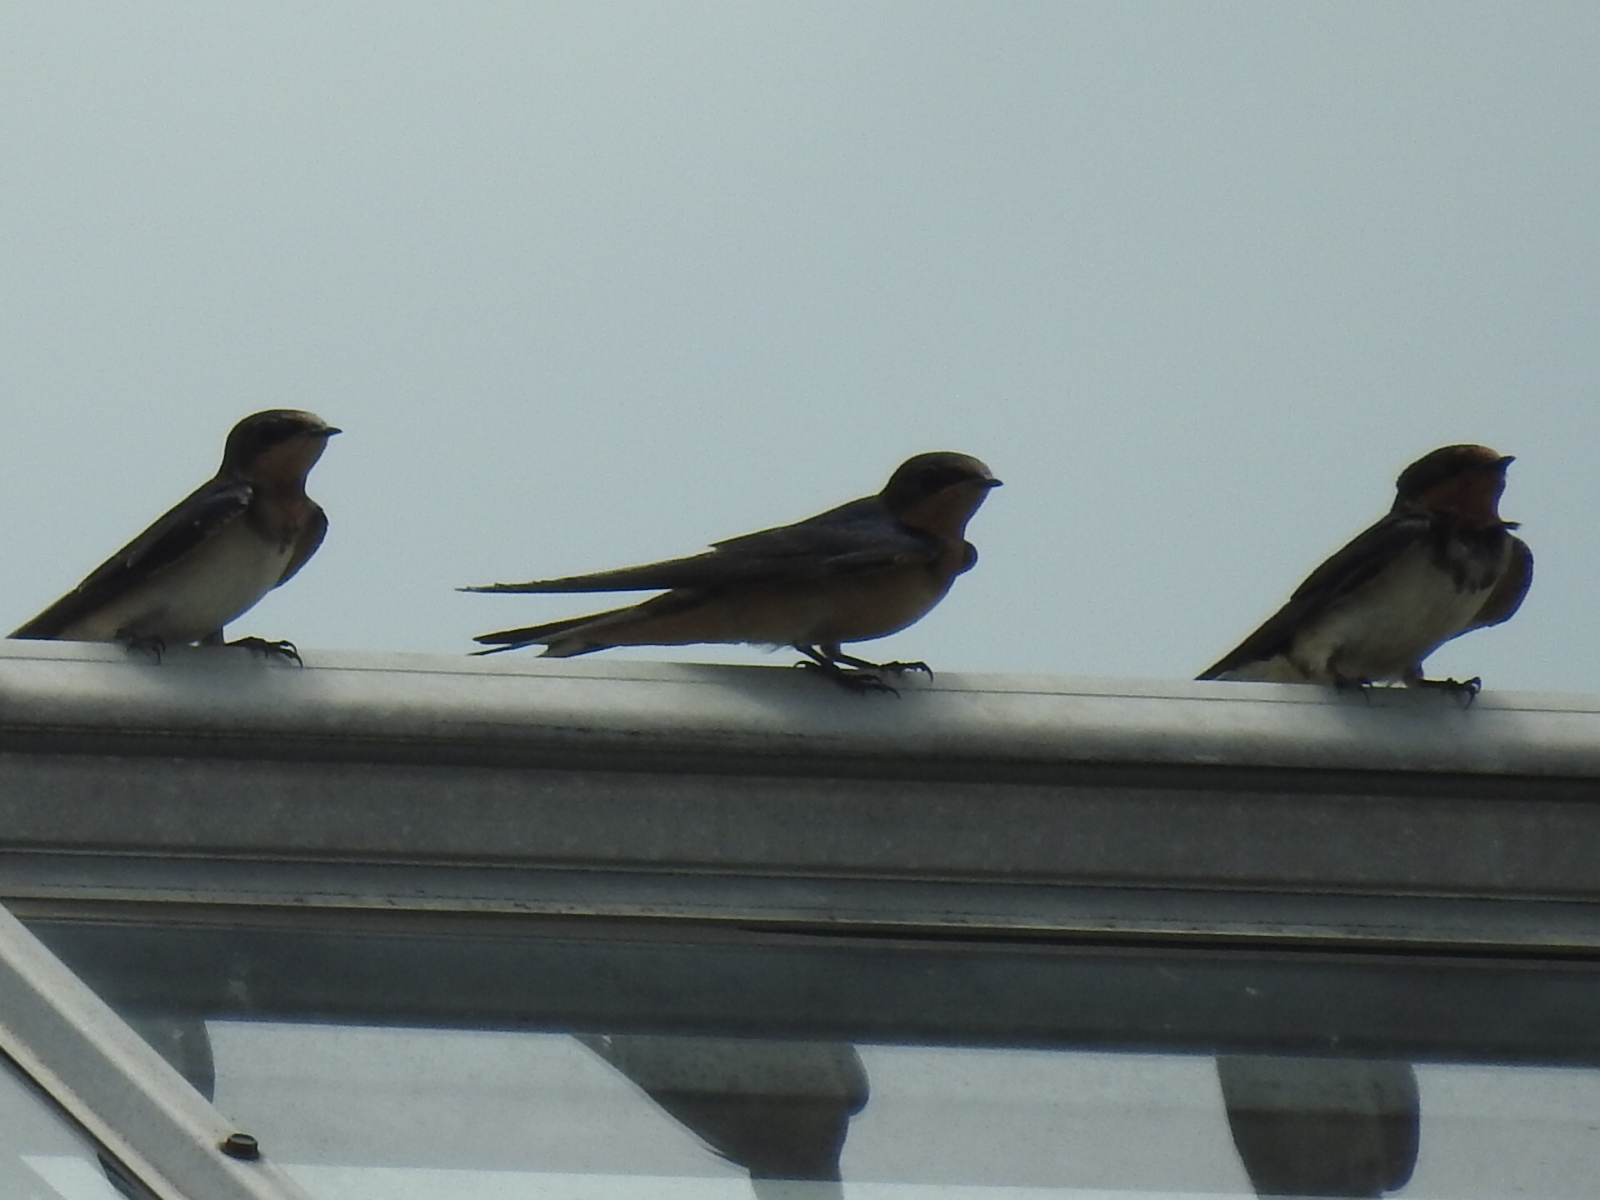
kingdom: Animalia
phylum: Chordata
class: Aves
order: Passeriformes
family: Hirundinidae
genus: Hirundo
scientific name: Hirundo rustica
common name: Barn swallow
